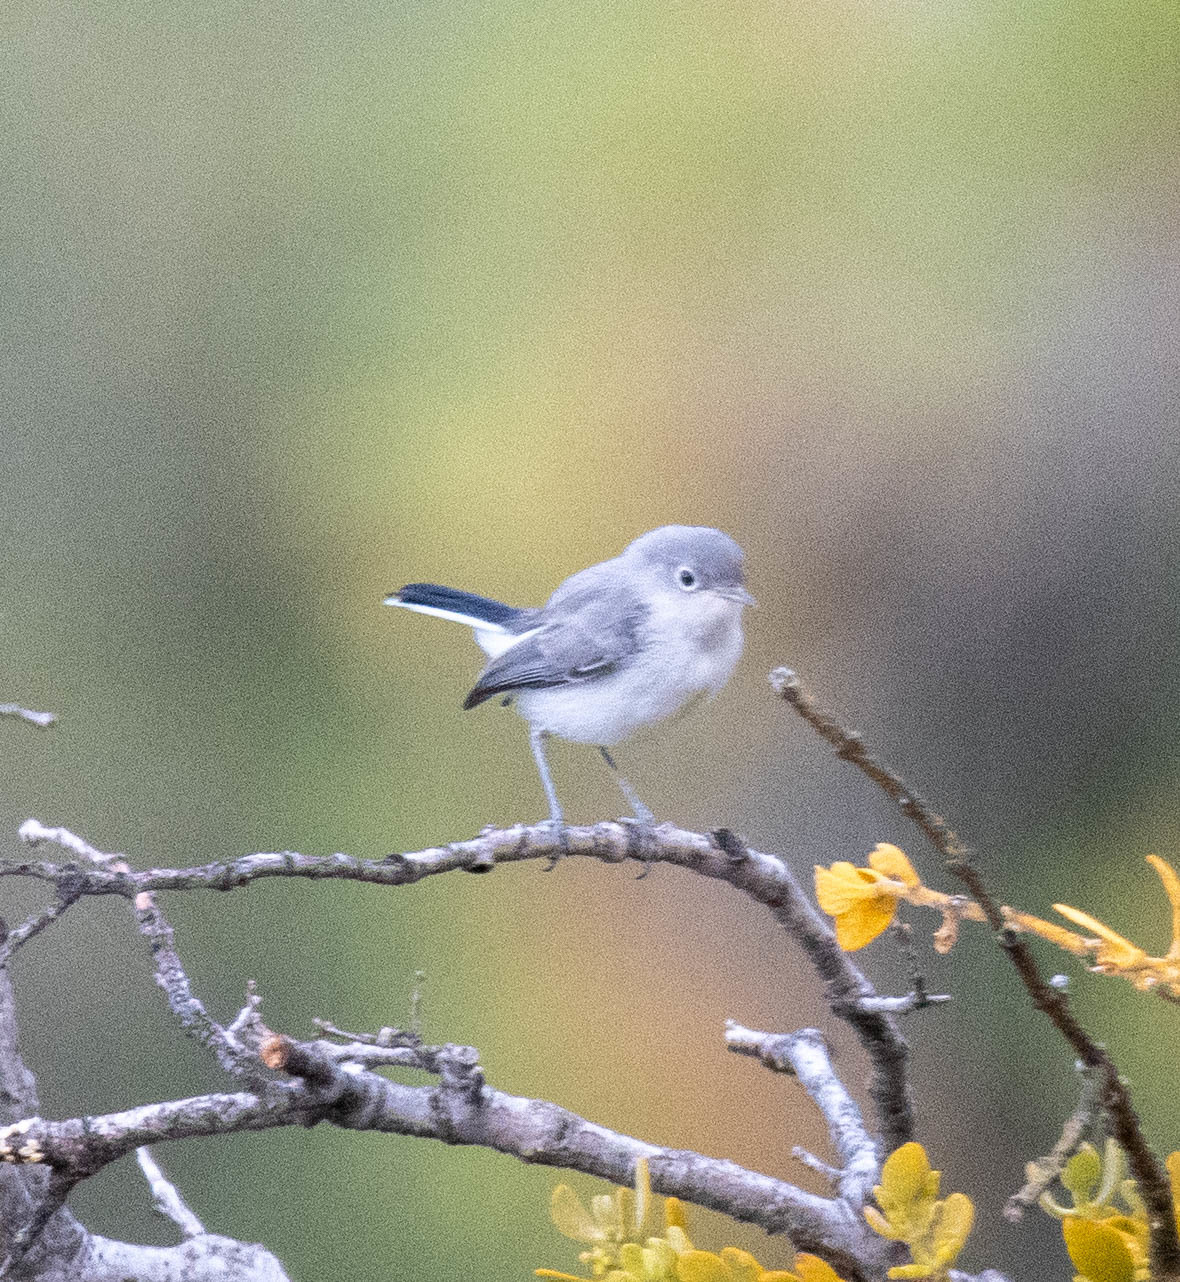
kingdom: Animalia
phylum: Chordata
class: Aves
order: Passeriformes
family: Polioptilidae
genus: Polioptila
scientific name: Polioptila caerulea
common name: Blue-gray gnatcatcher
